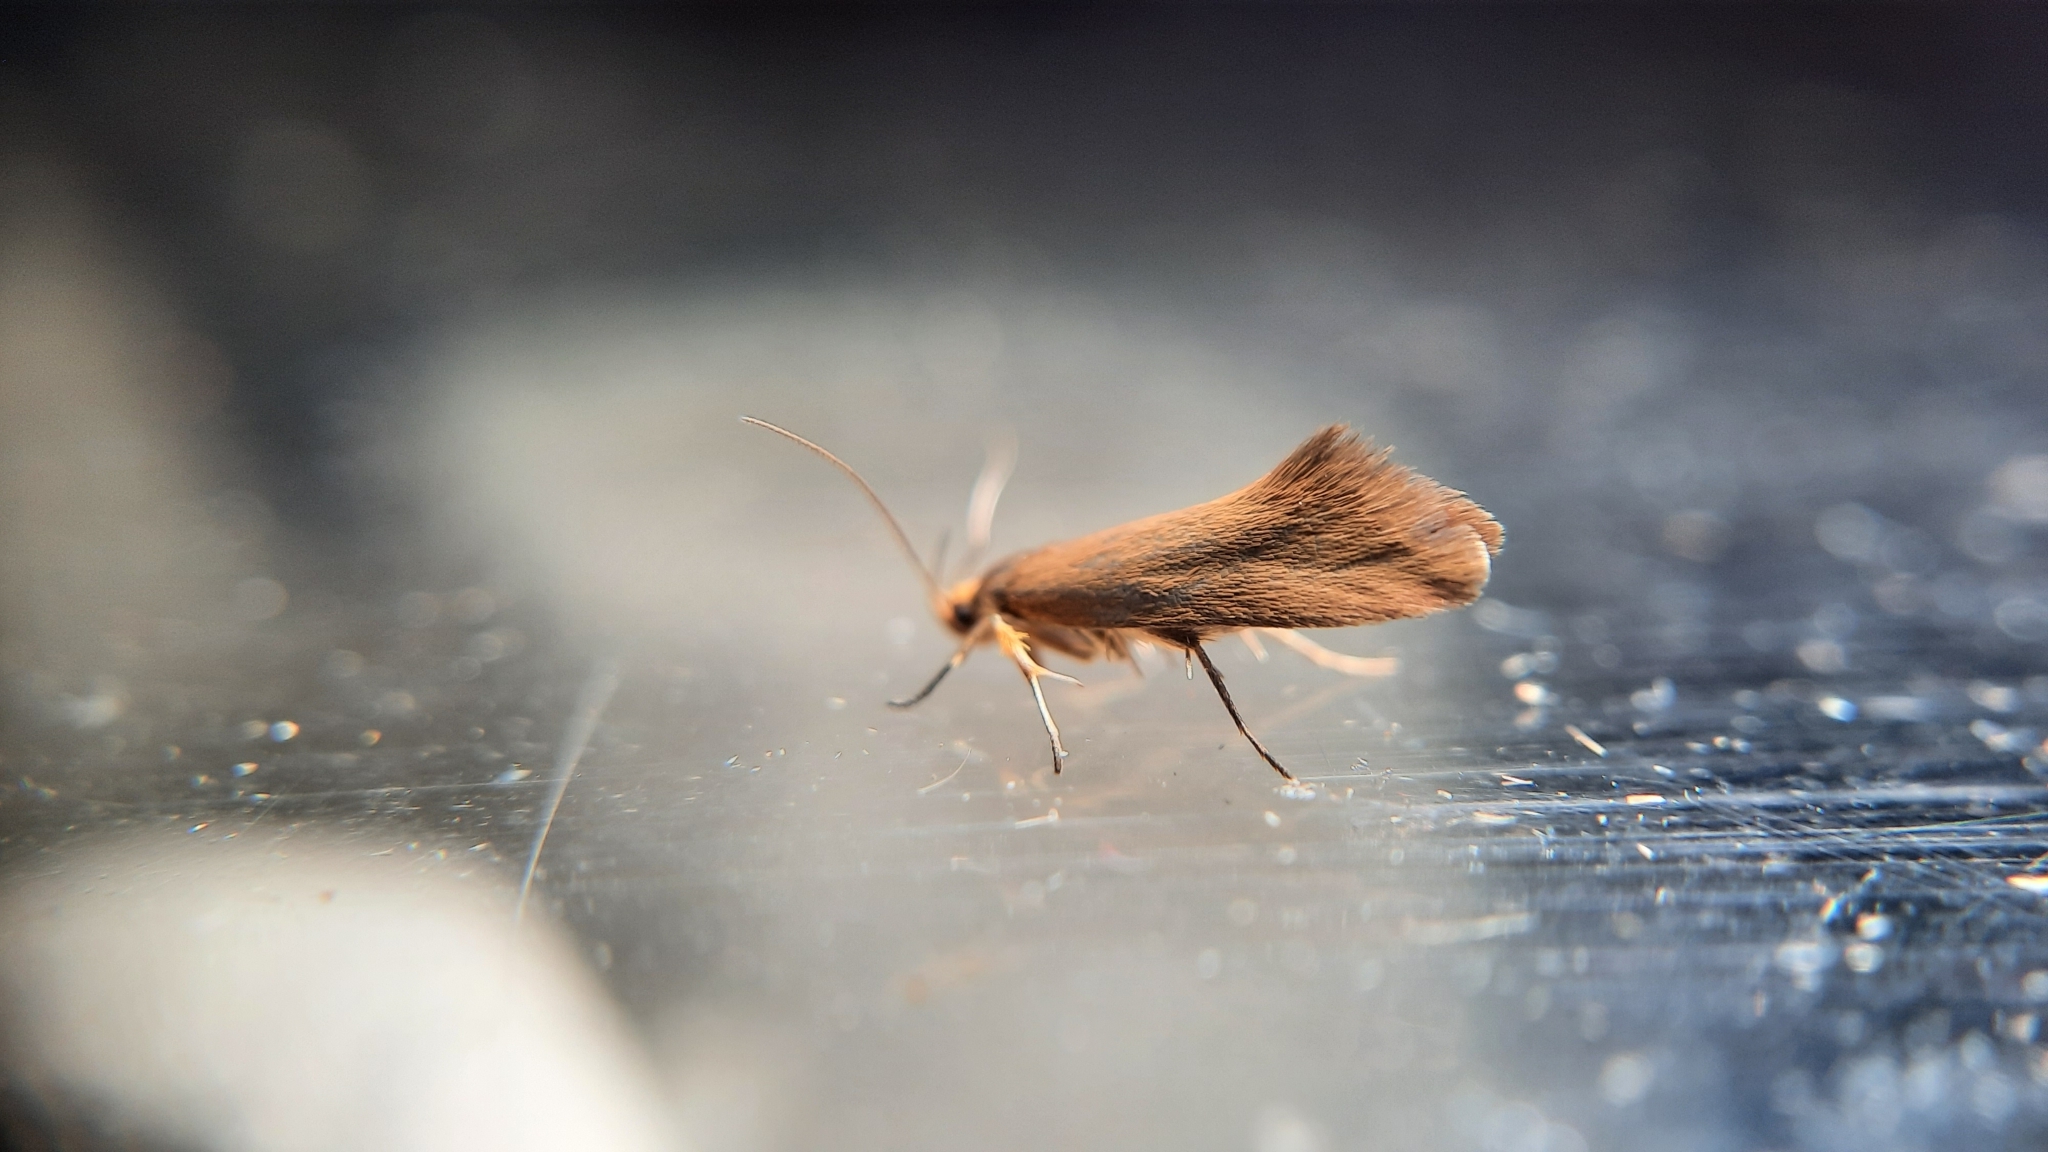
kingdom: Animalia
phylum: Arthropoda
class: Insecta
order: Lepidoptera
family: Oecophoridae
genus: Borkhausenia
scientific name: Borkhausenia Crassa unitella
